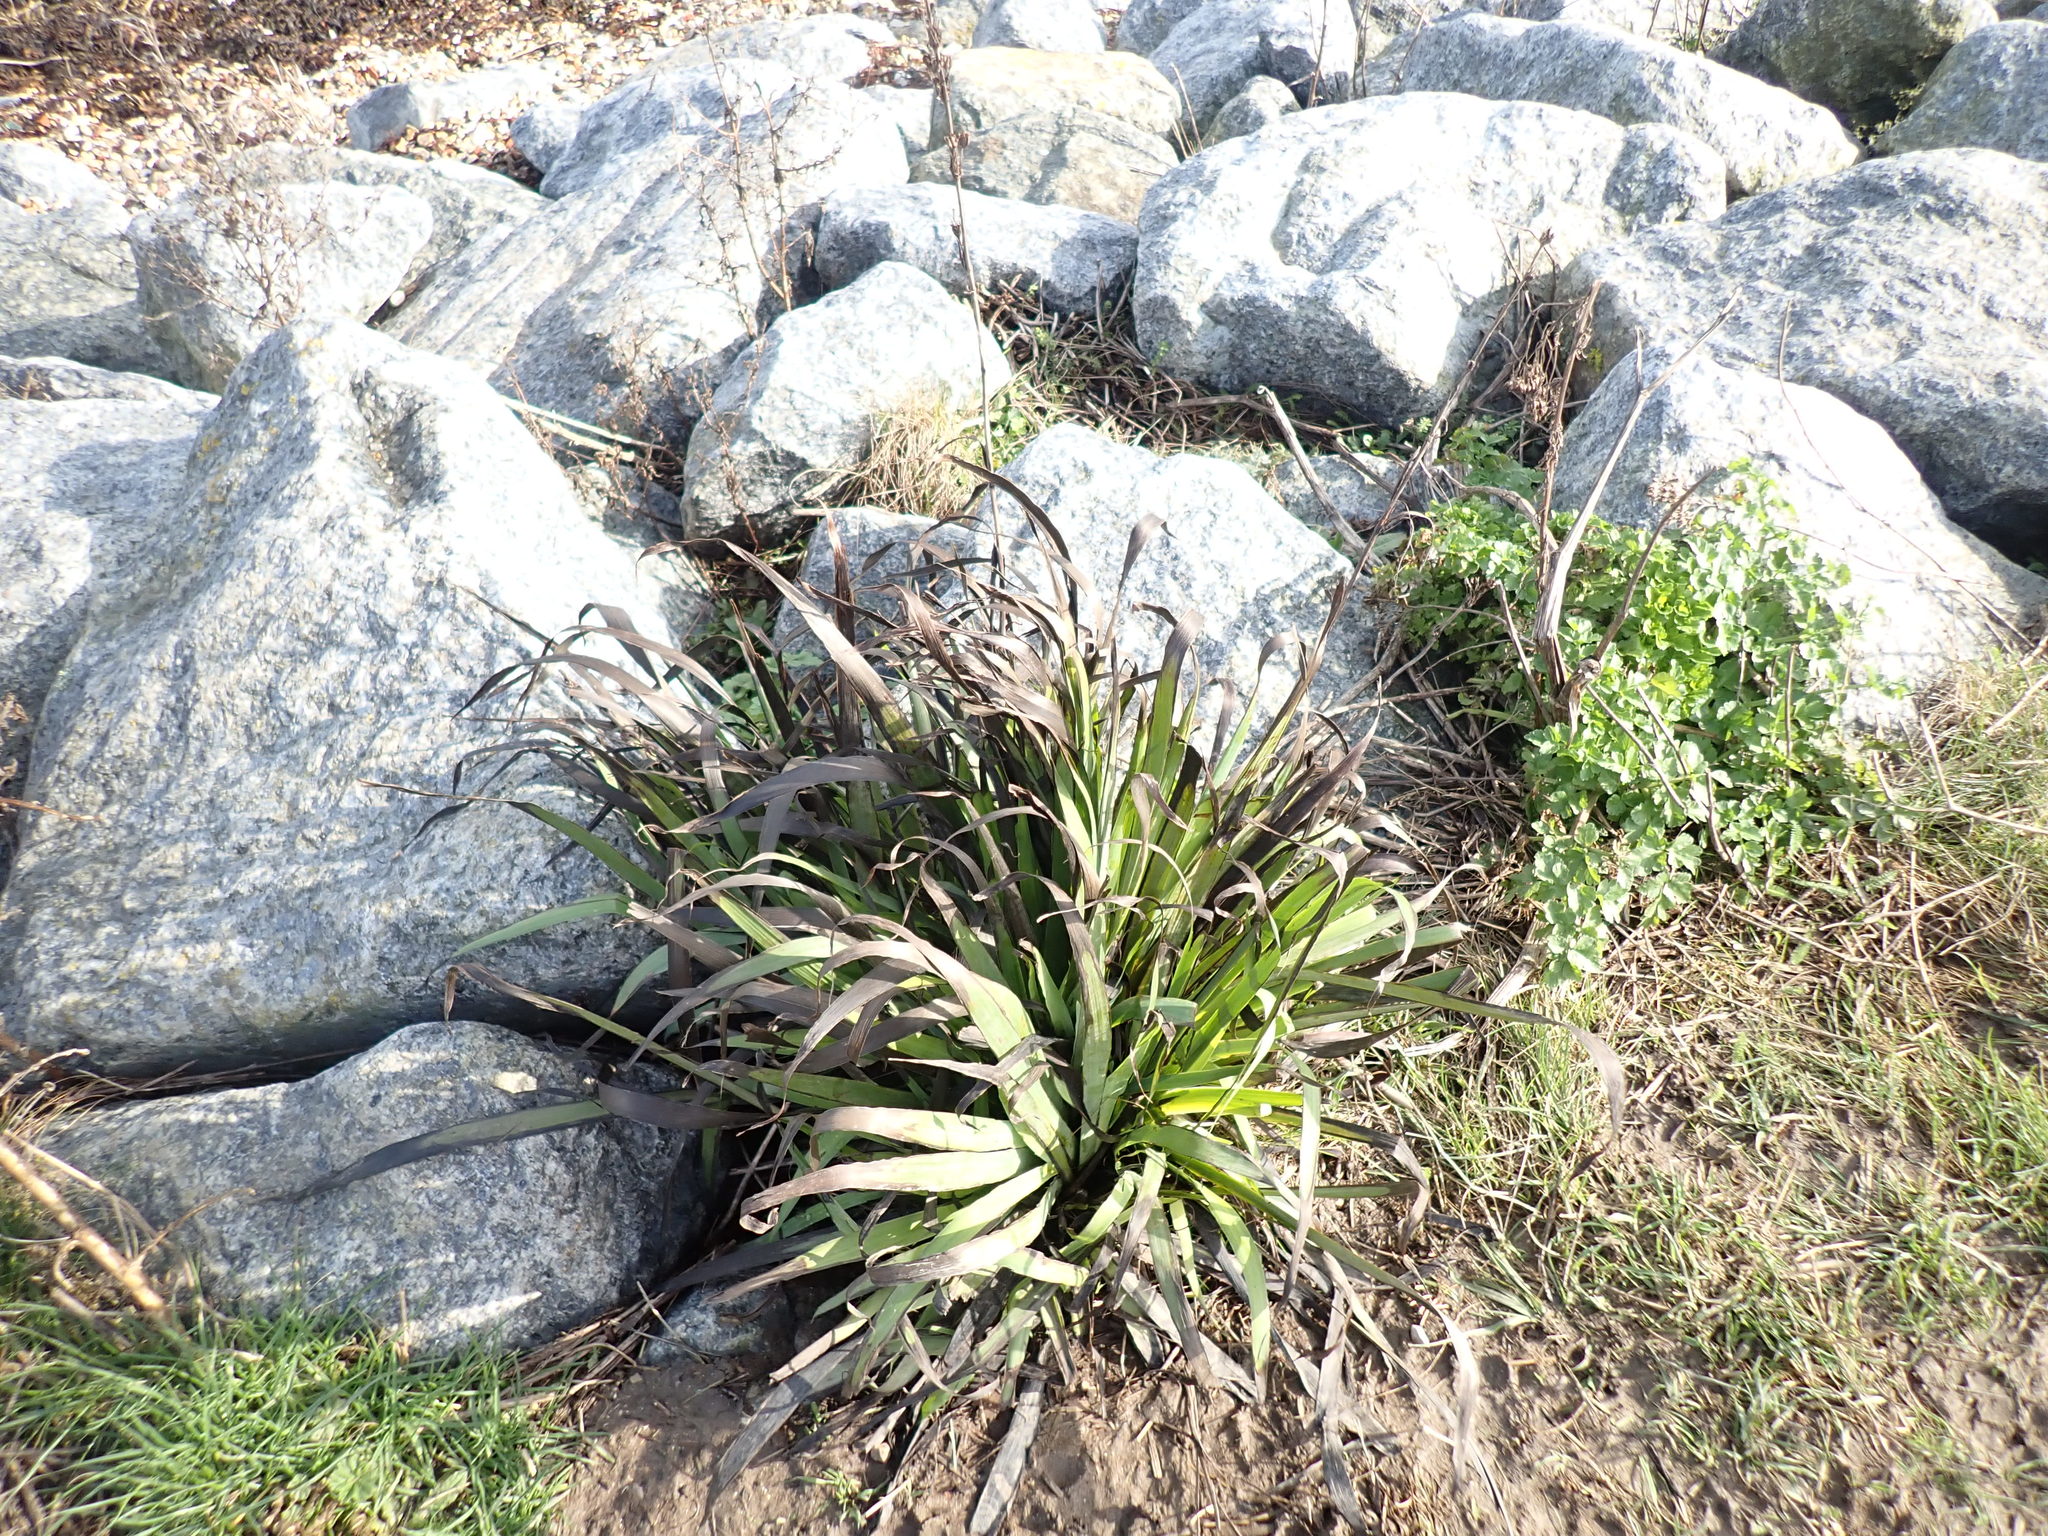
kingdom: Plantae
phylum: Tracheophyta
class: Liliopsida
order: Asparagales
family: Iridaceae
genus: Sisyrinchium
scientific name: Sisyrinchium striatum
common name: Pale yellow-eyed-grass
